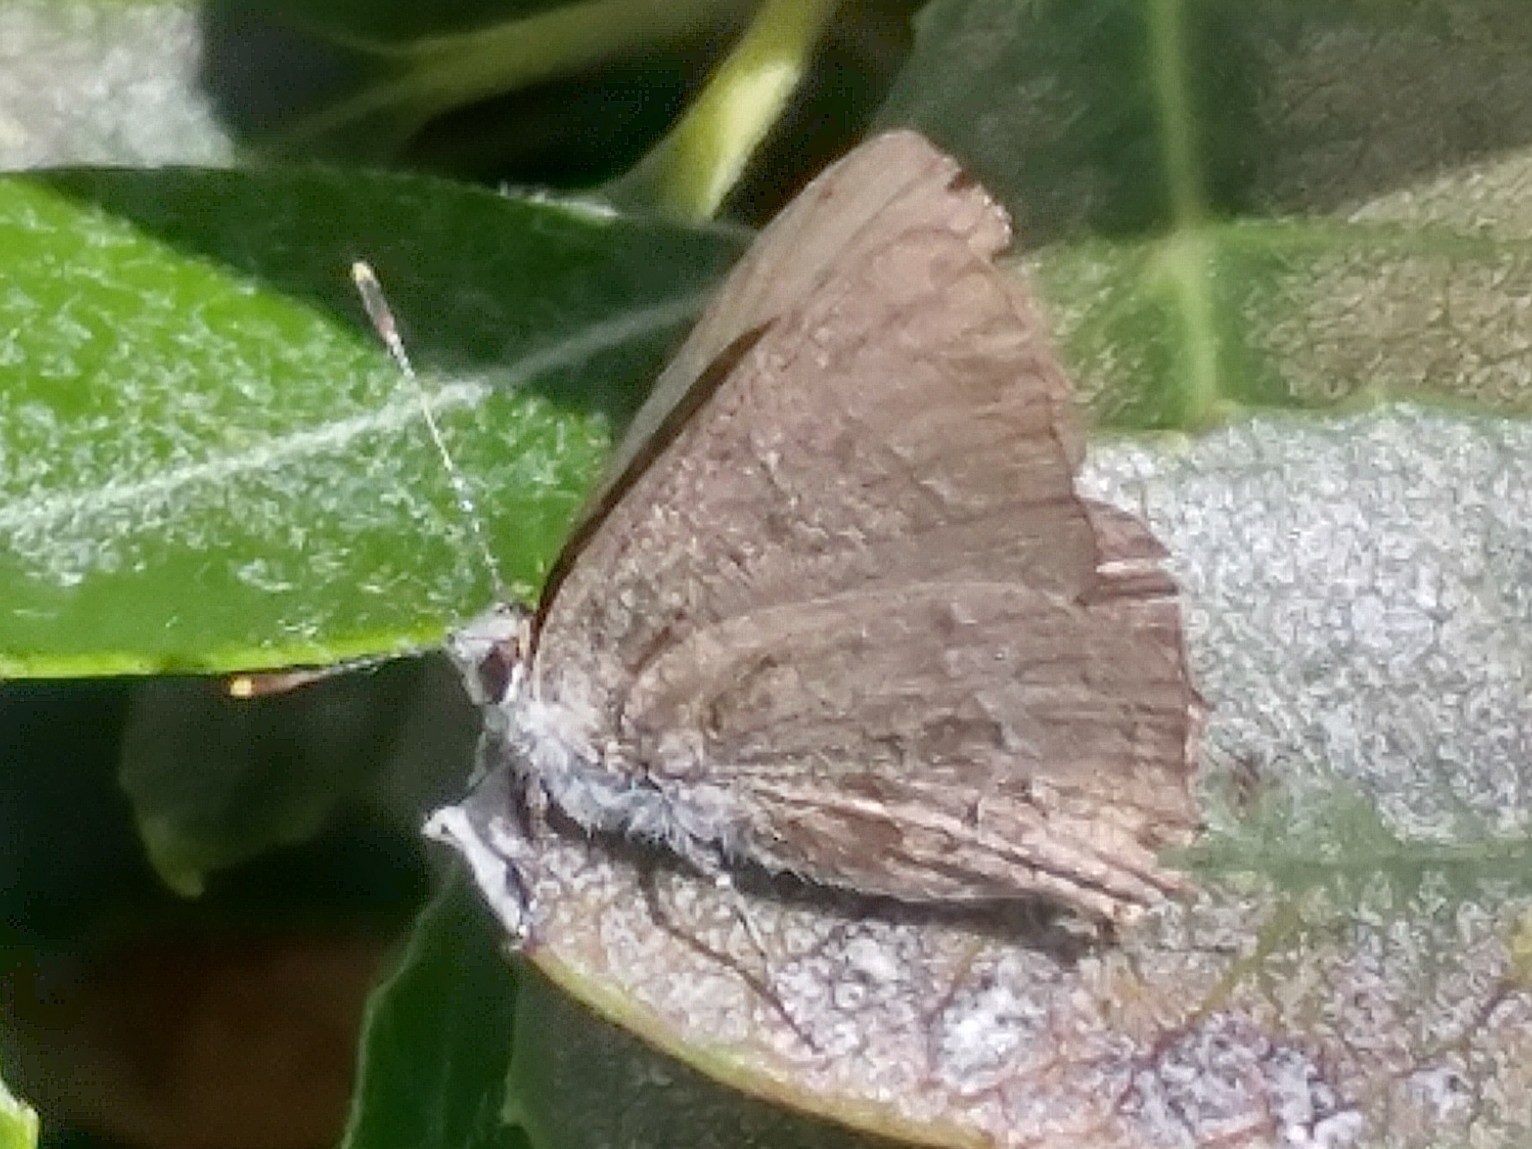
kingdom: Animalia
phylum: Arthropoda
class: Insecta
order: Lepidoptera
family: Lycaenidae
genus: Strymon
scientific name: Strymon melinus
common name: Gray hairstreak
